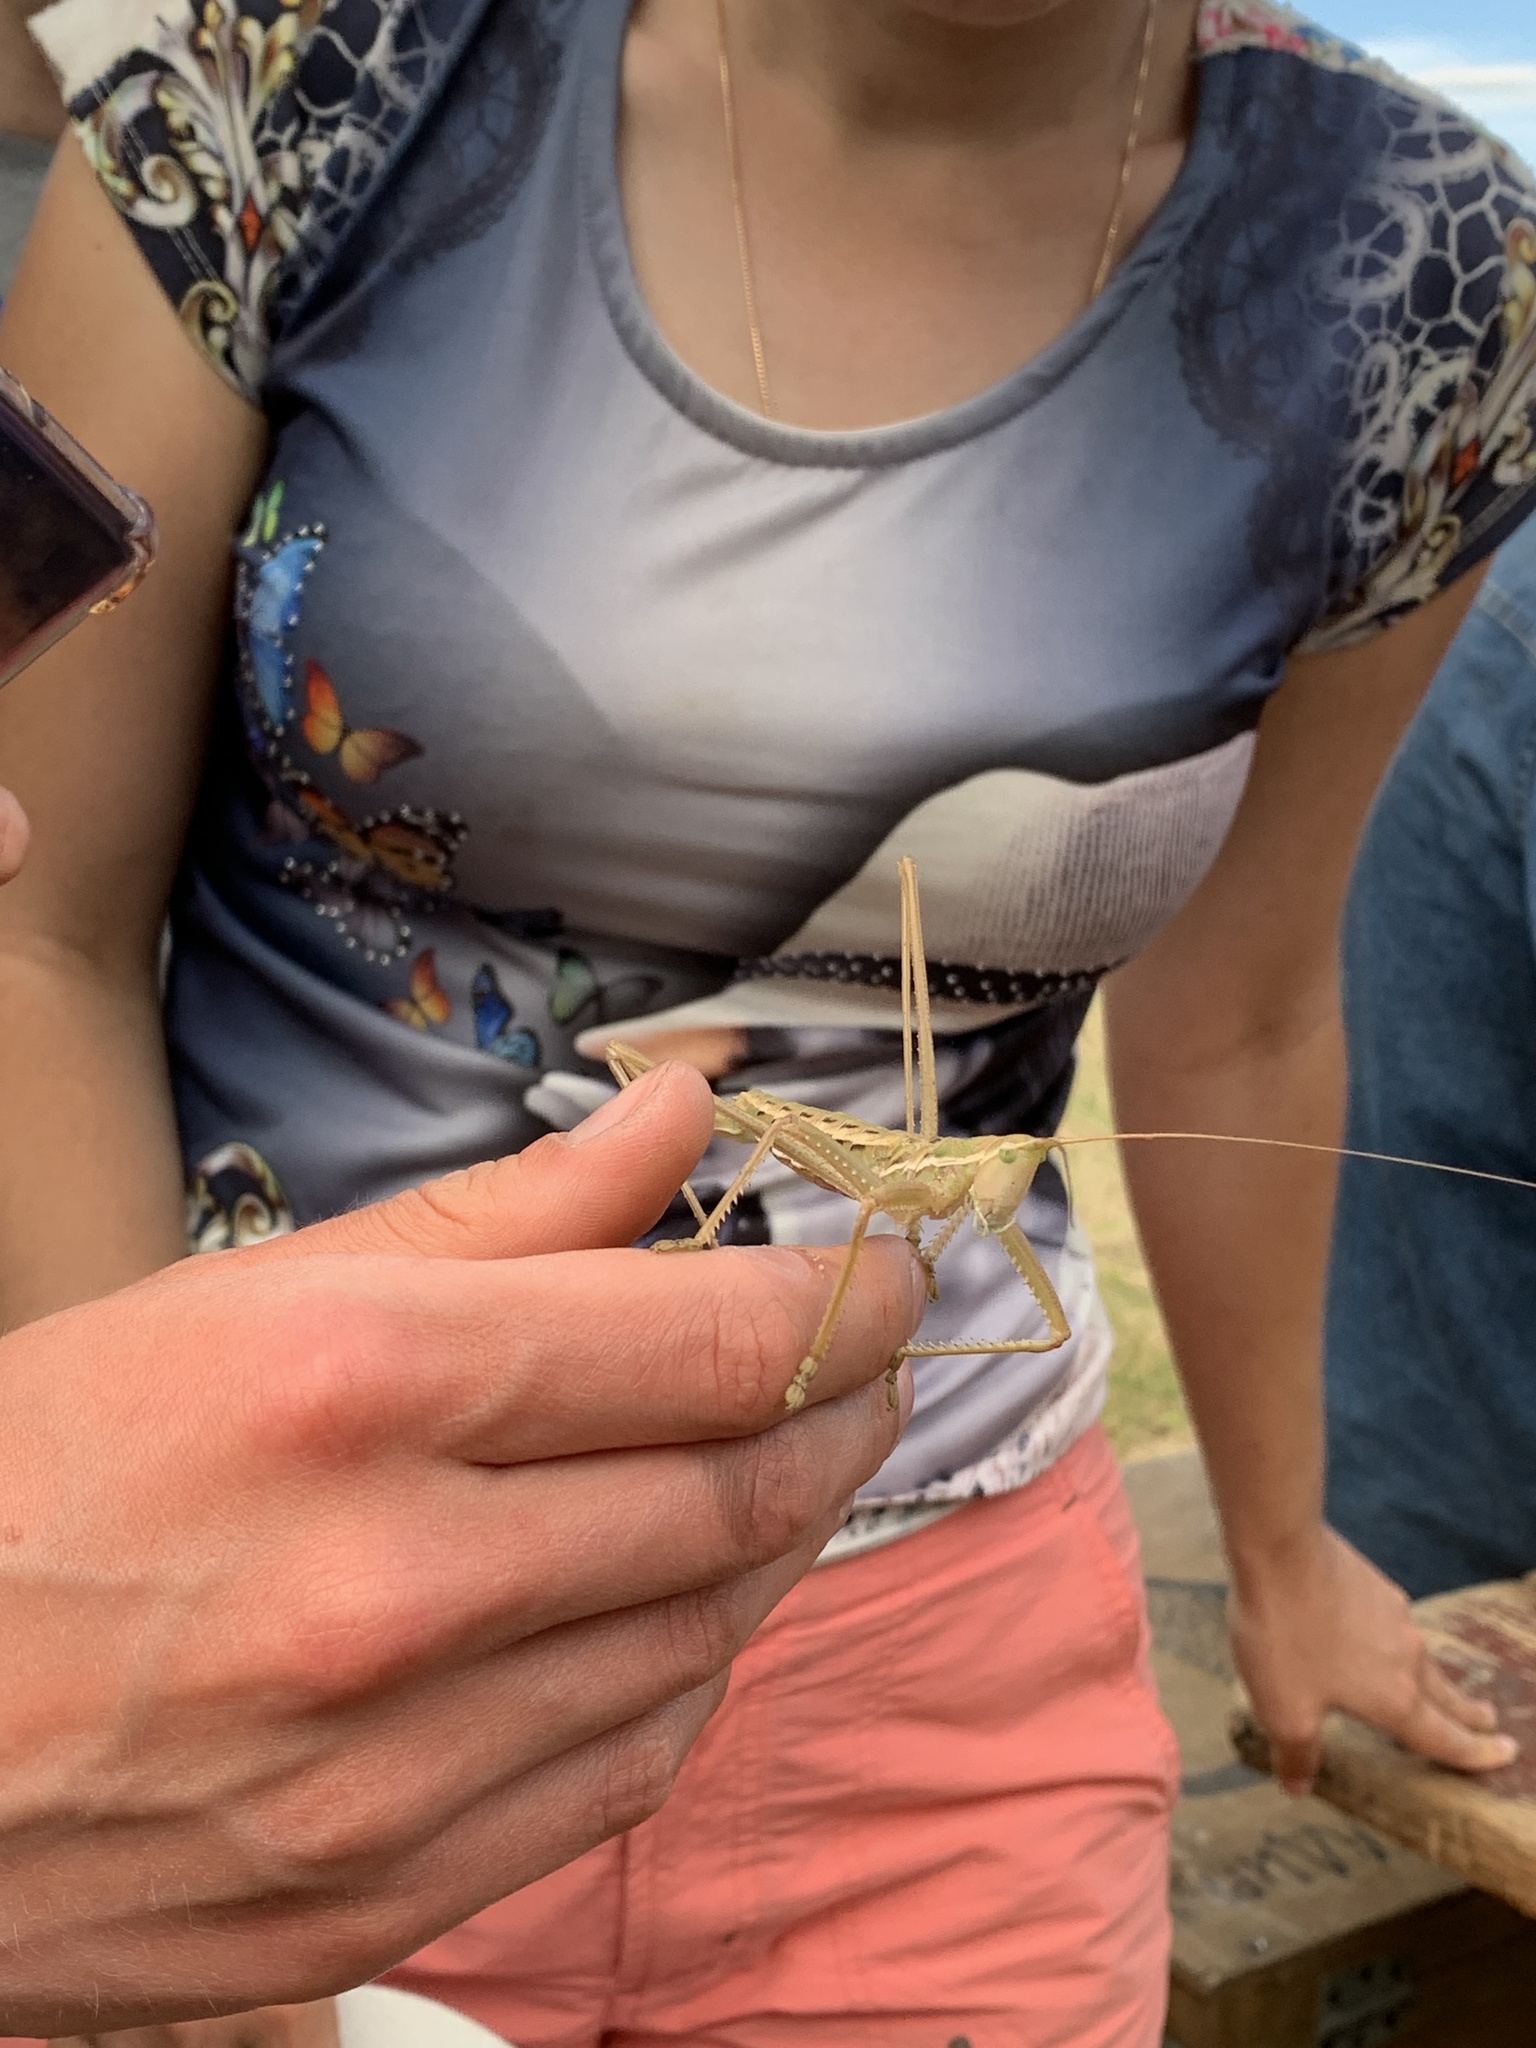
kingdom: Animalia
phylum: Arthropoda
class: Insecta
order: Orthoptera
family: Tettigoniidae
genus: Saga
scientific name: Saga pedo
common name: Common predatory bush-cricket
